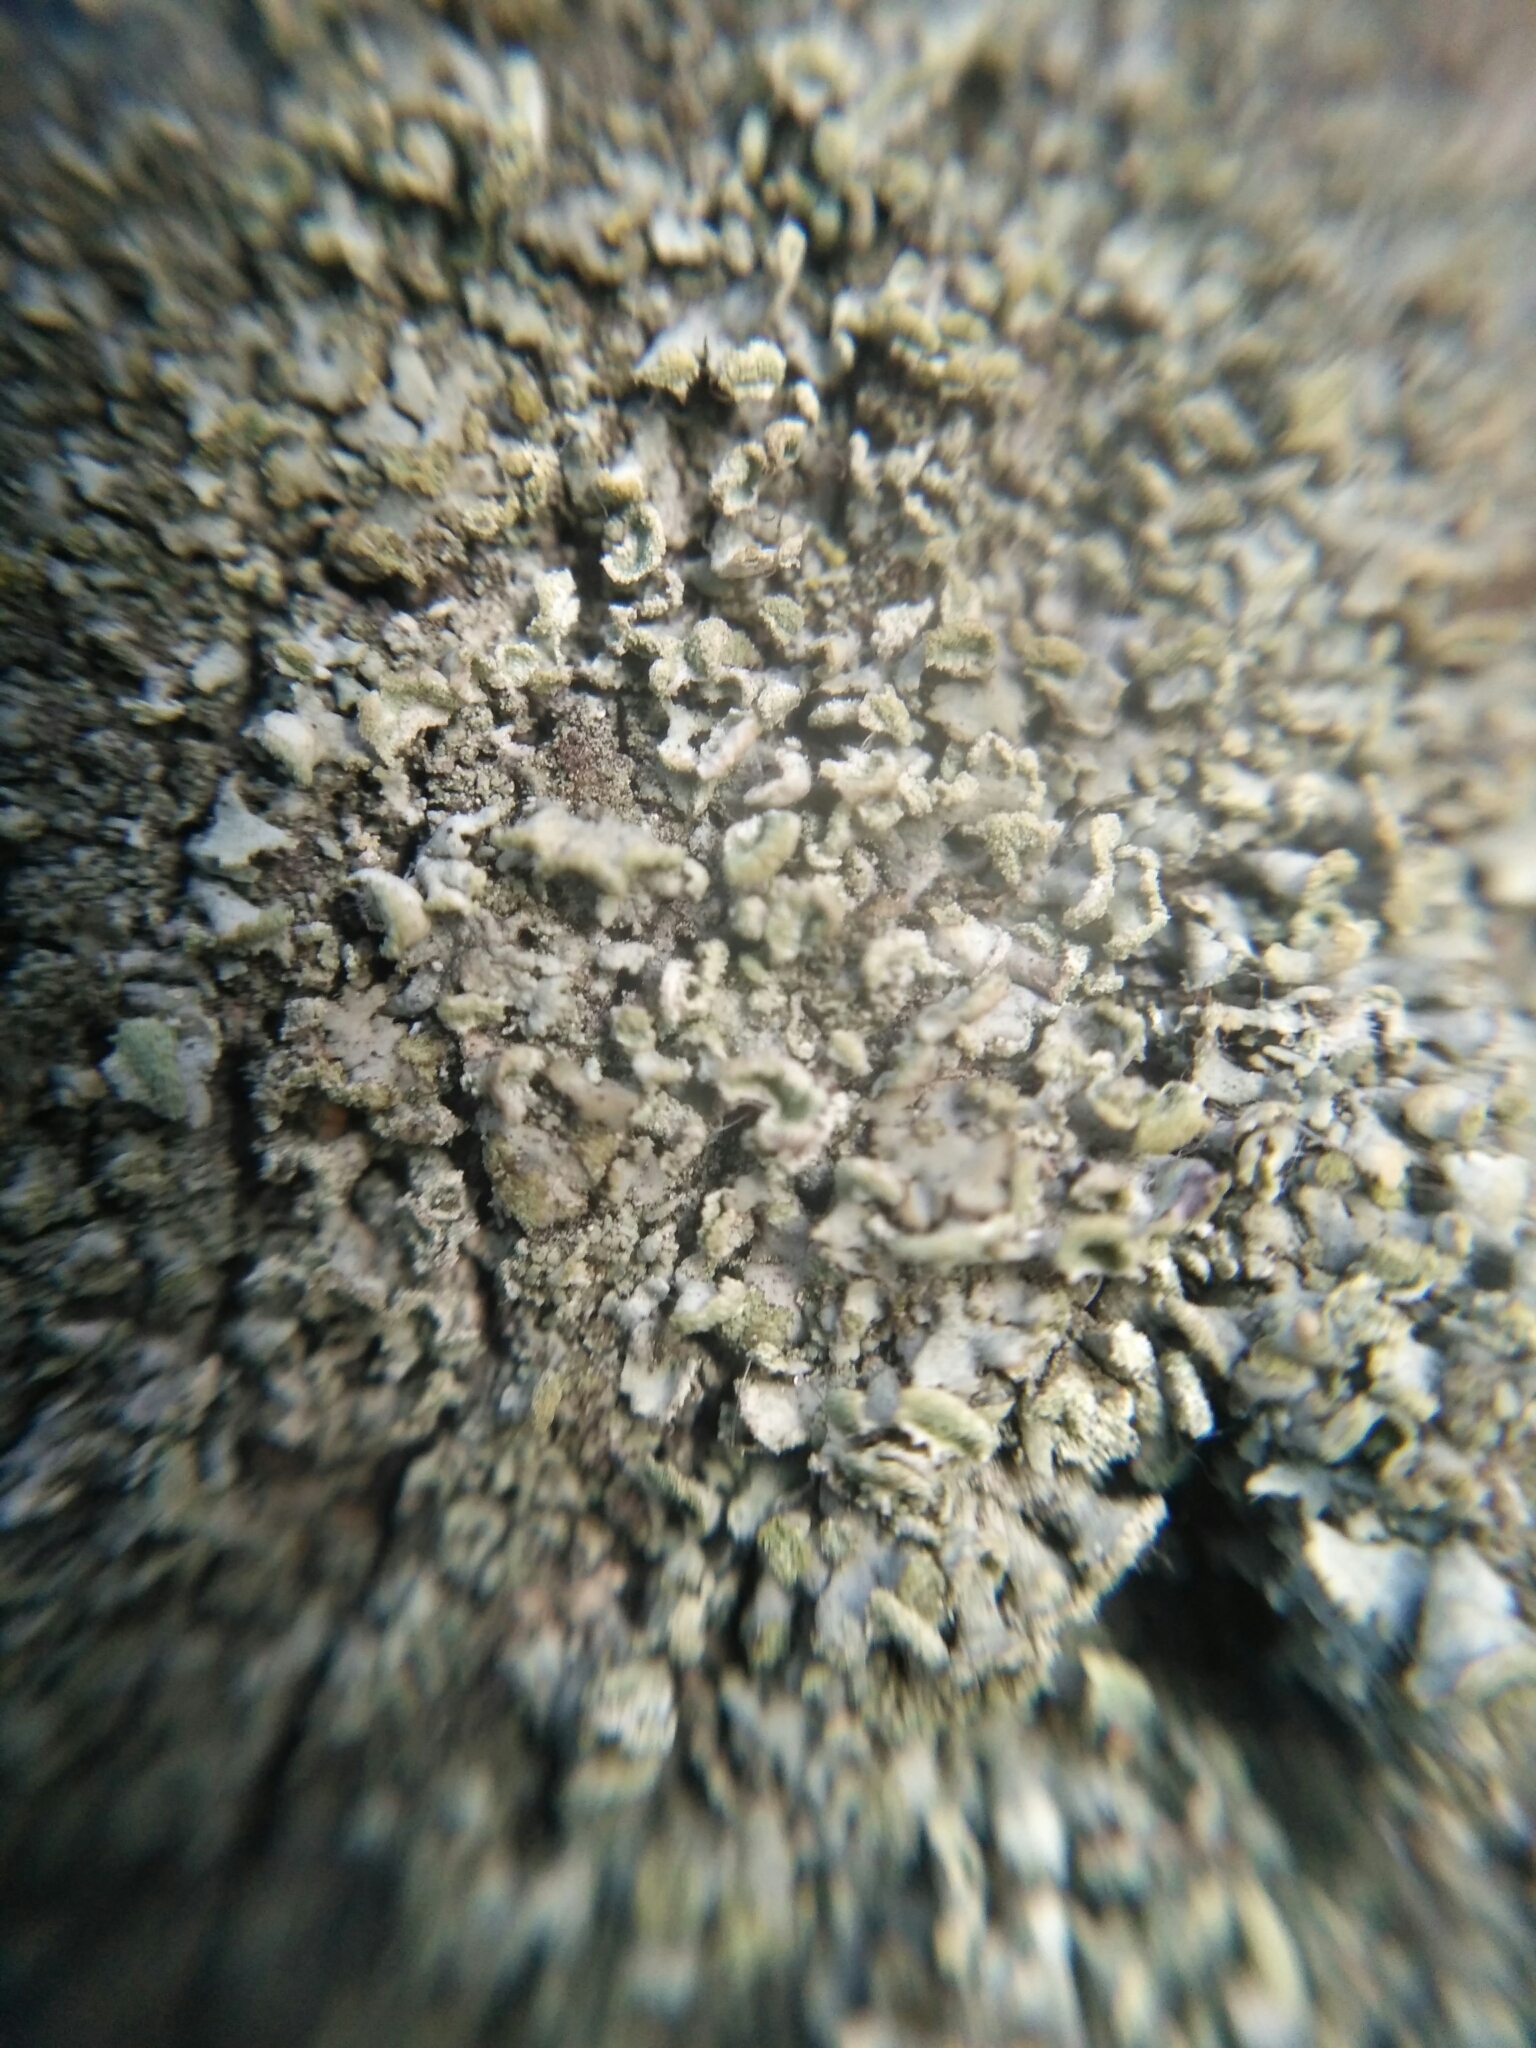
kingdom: Fungi
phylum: Ascomycota
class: Lecanoromycetes
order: Caliciales
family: Physciaceae
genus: Physcia
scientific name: Physcia tenella
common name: Fringed rosette lichen
